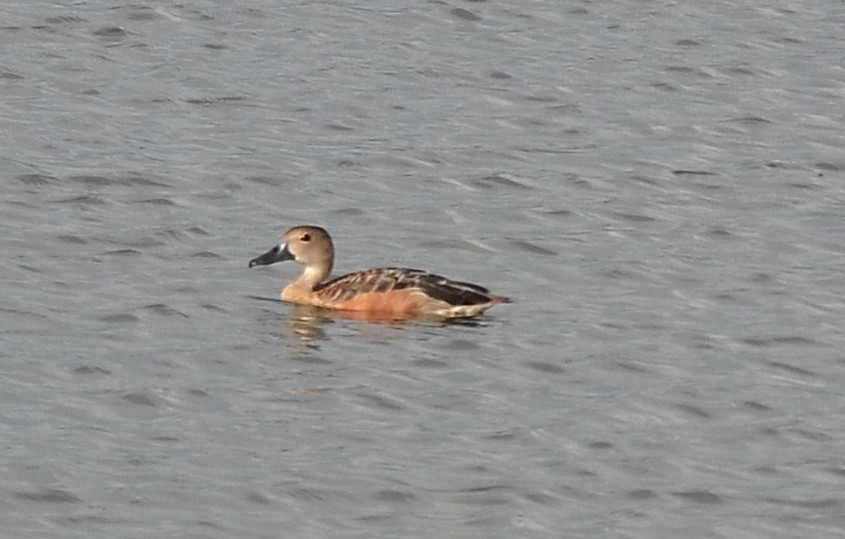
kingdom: Animalia
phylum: Chordata
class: Aves
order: Anseriformes
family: Anatidae
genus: Dendrocygna
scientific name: Dendrocygna javanica
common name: Lesser whistling-duck
